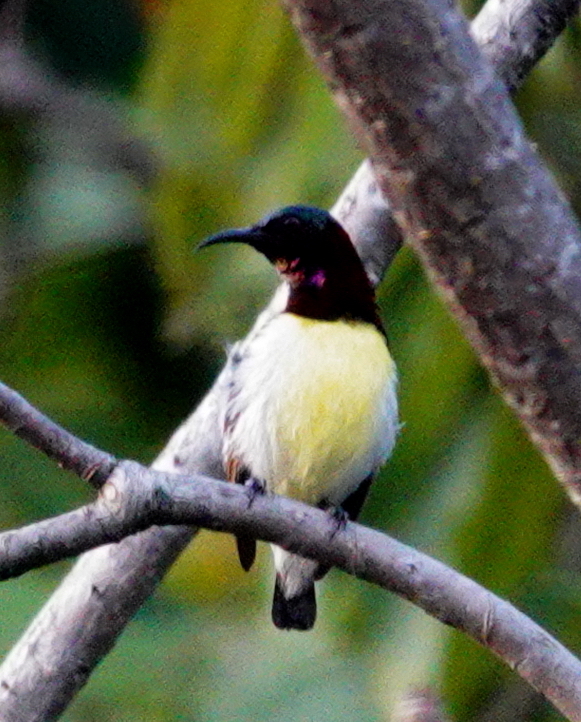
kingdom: Animalia
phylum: Chordata
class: Aves
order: Passeriformes
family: Nectariniidae
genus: Leptocoma
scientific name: Leptocoma zeylonica
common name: Purple-rumped sunbird
